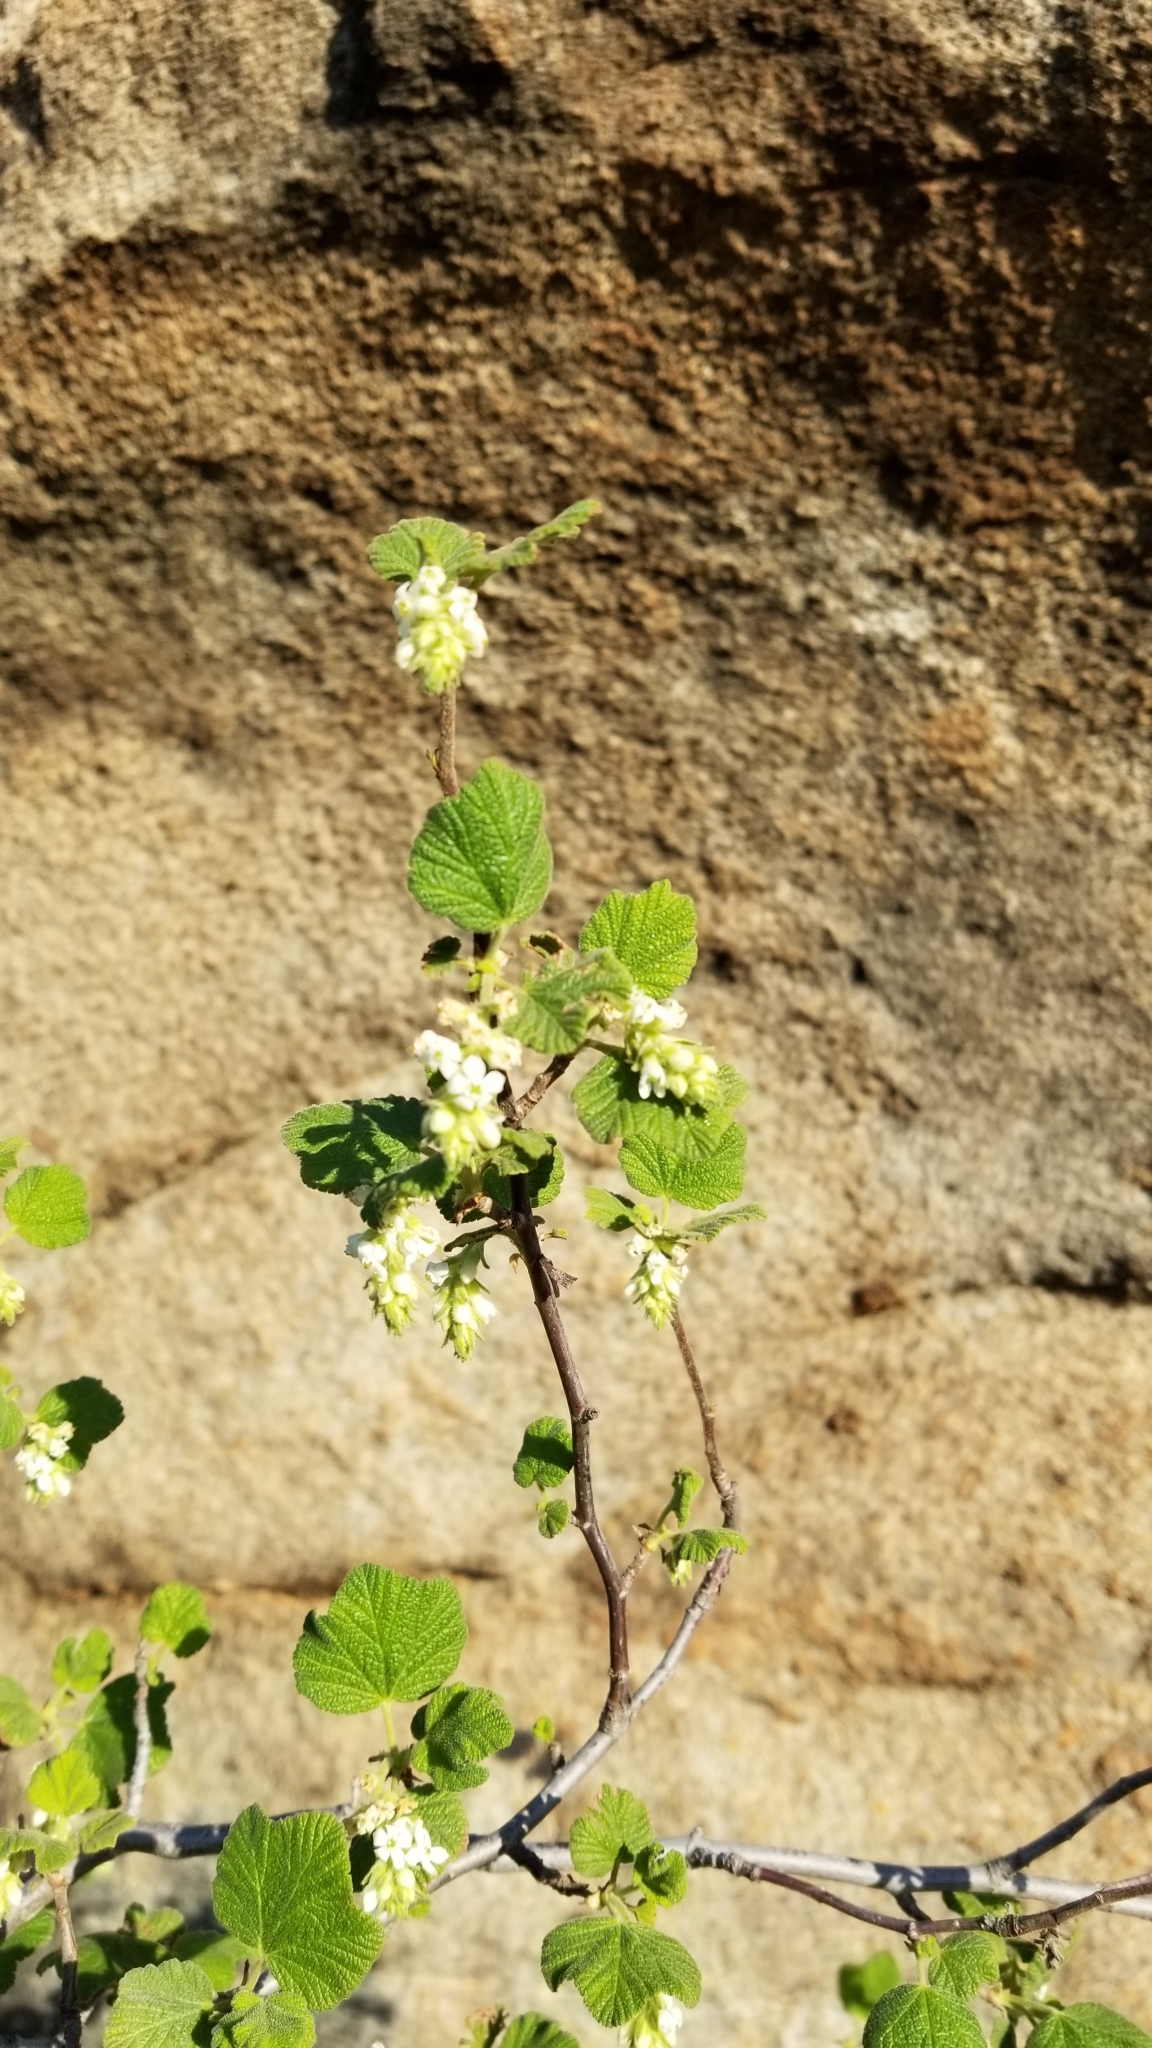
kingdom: Plantae
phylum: Tracheophyta
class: Magnoliopsida
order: Saxifragales
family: Grossulariaceae
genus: Ribes
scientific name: Ribes indecorum
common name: White-flower currant
